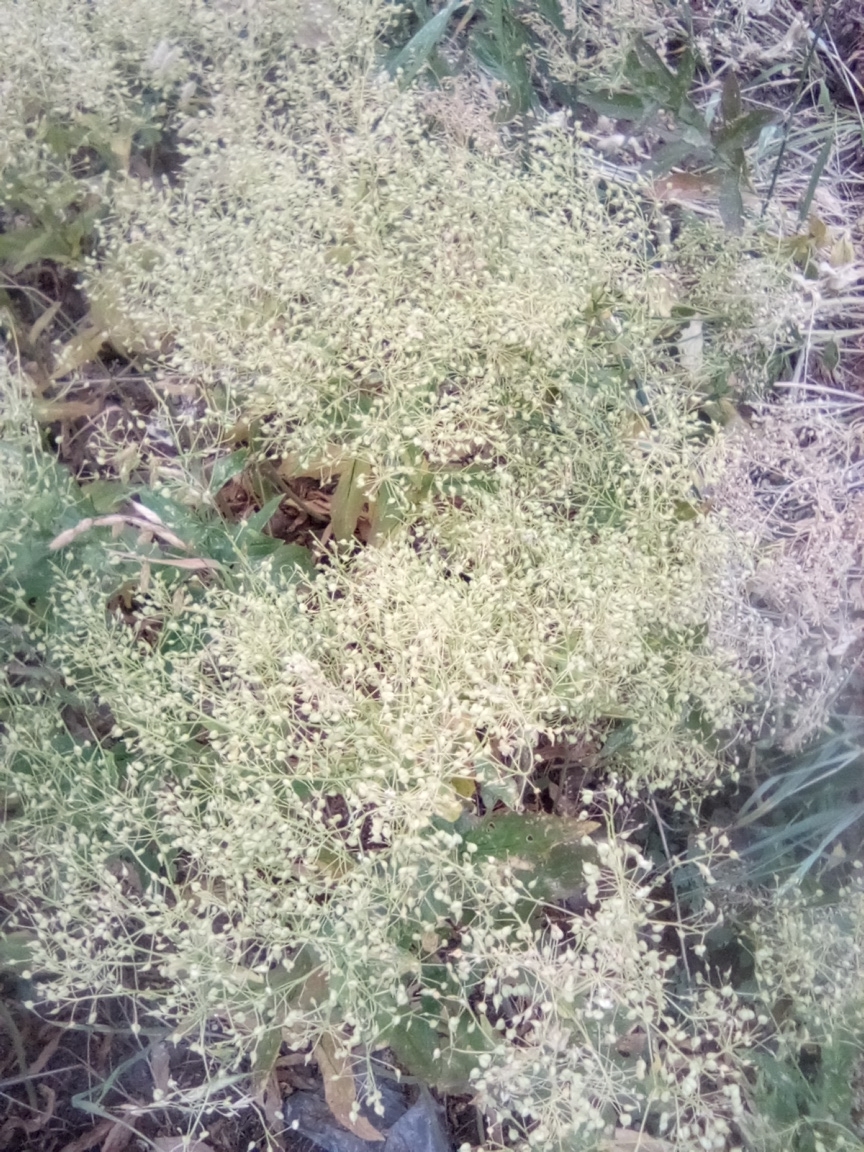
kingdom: Plantae
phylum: Tracheophyta
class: Magnoliopsida
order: Brassicales
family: Brassicaceae
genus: Lepidium
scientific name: Lepidium draba
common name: Hoary cress
